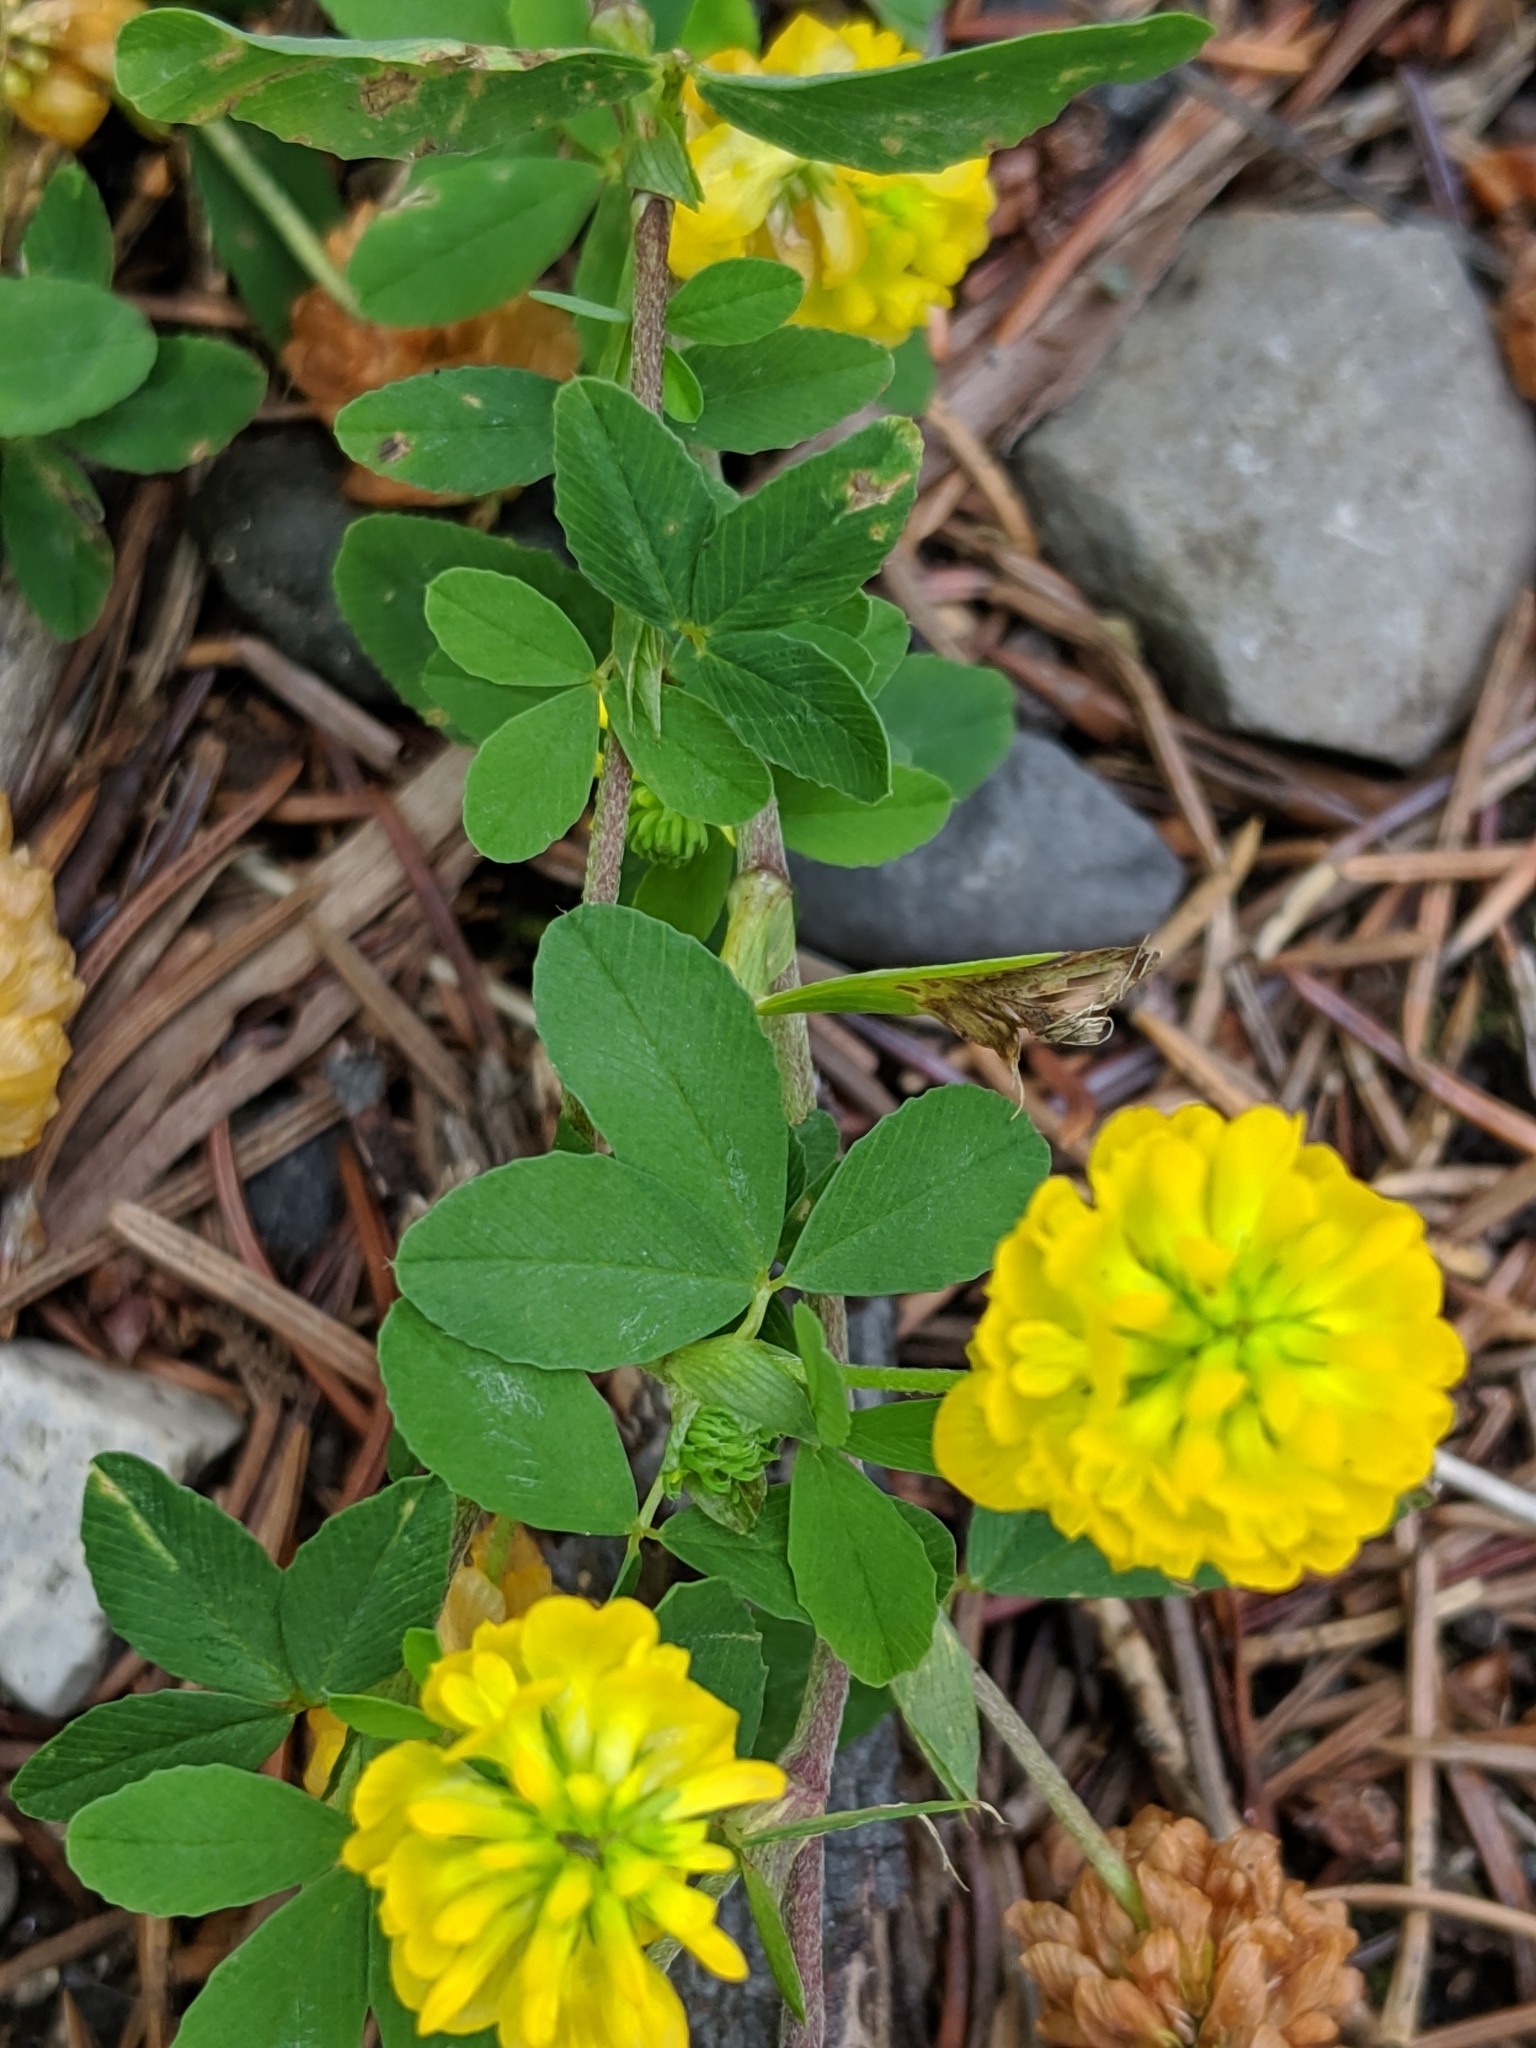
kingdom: Plantae
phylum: Tracheophyta
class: Magnoliopsida
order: Fabales
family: Fabaceae
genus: Trifolium
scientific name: Trifolium aureum
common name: Golden clover
